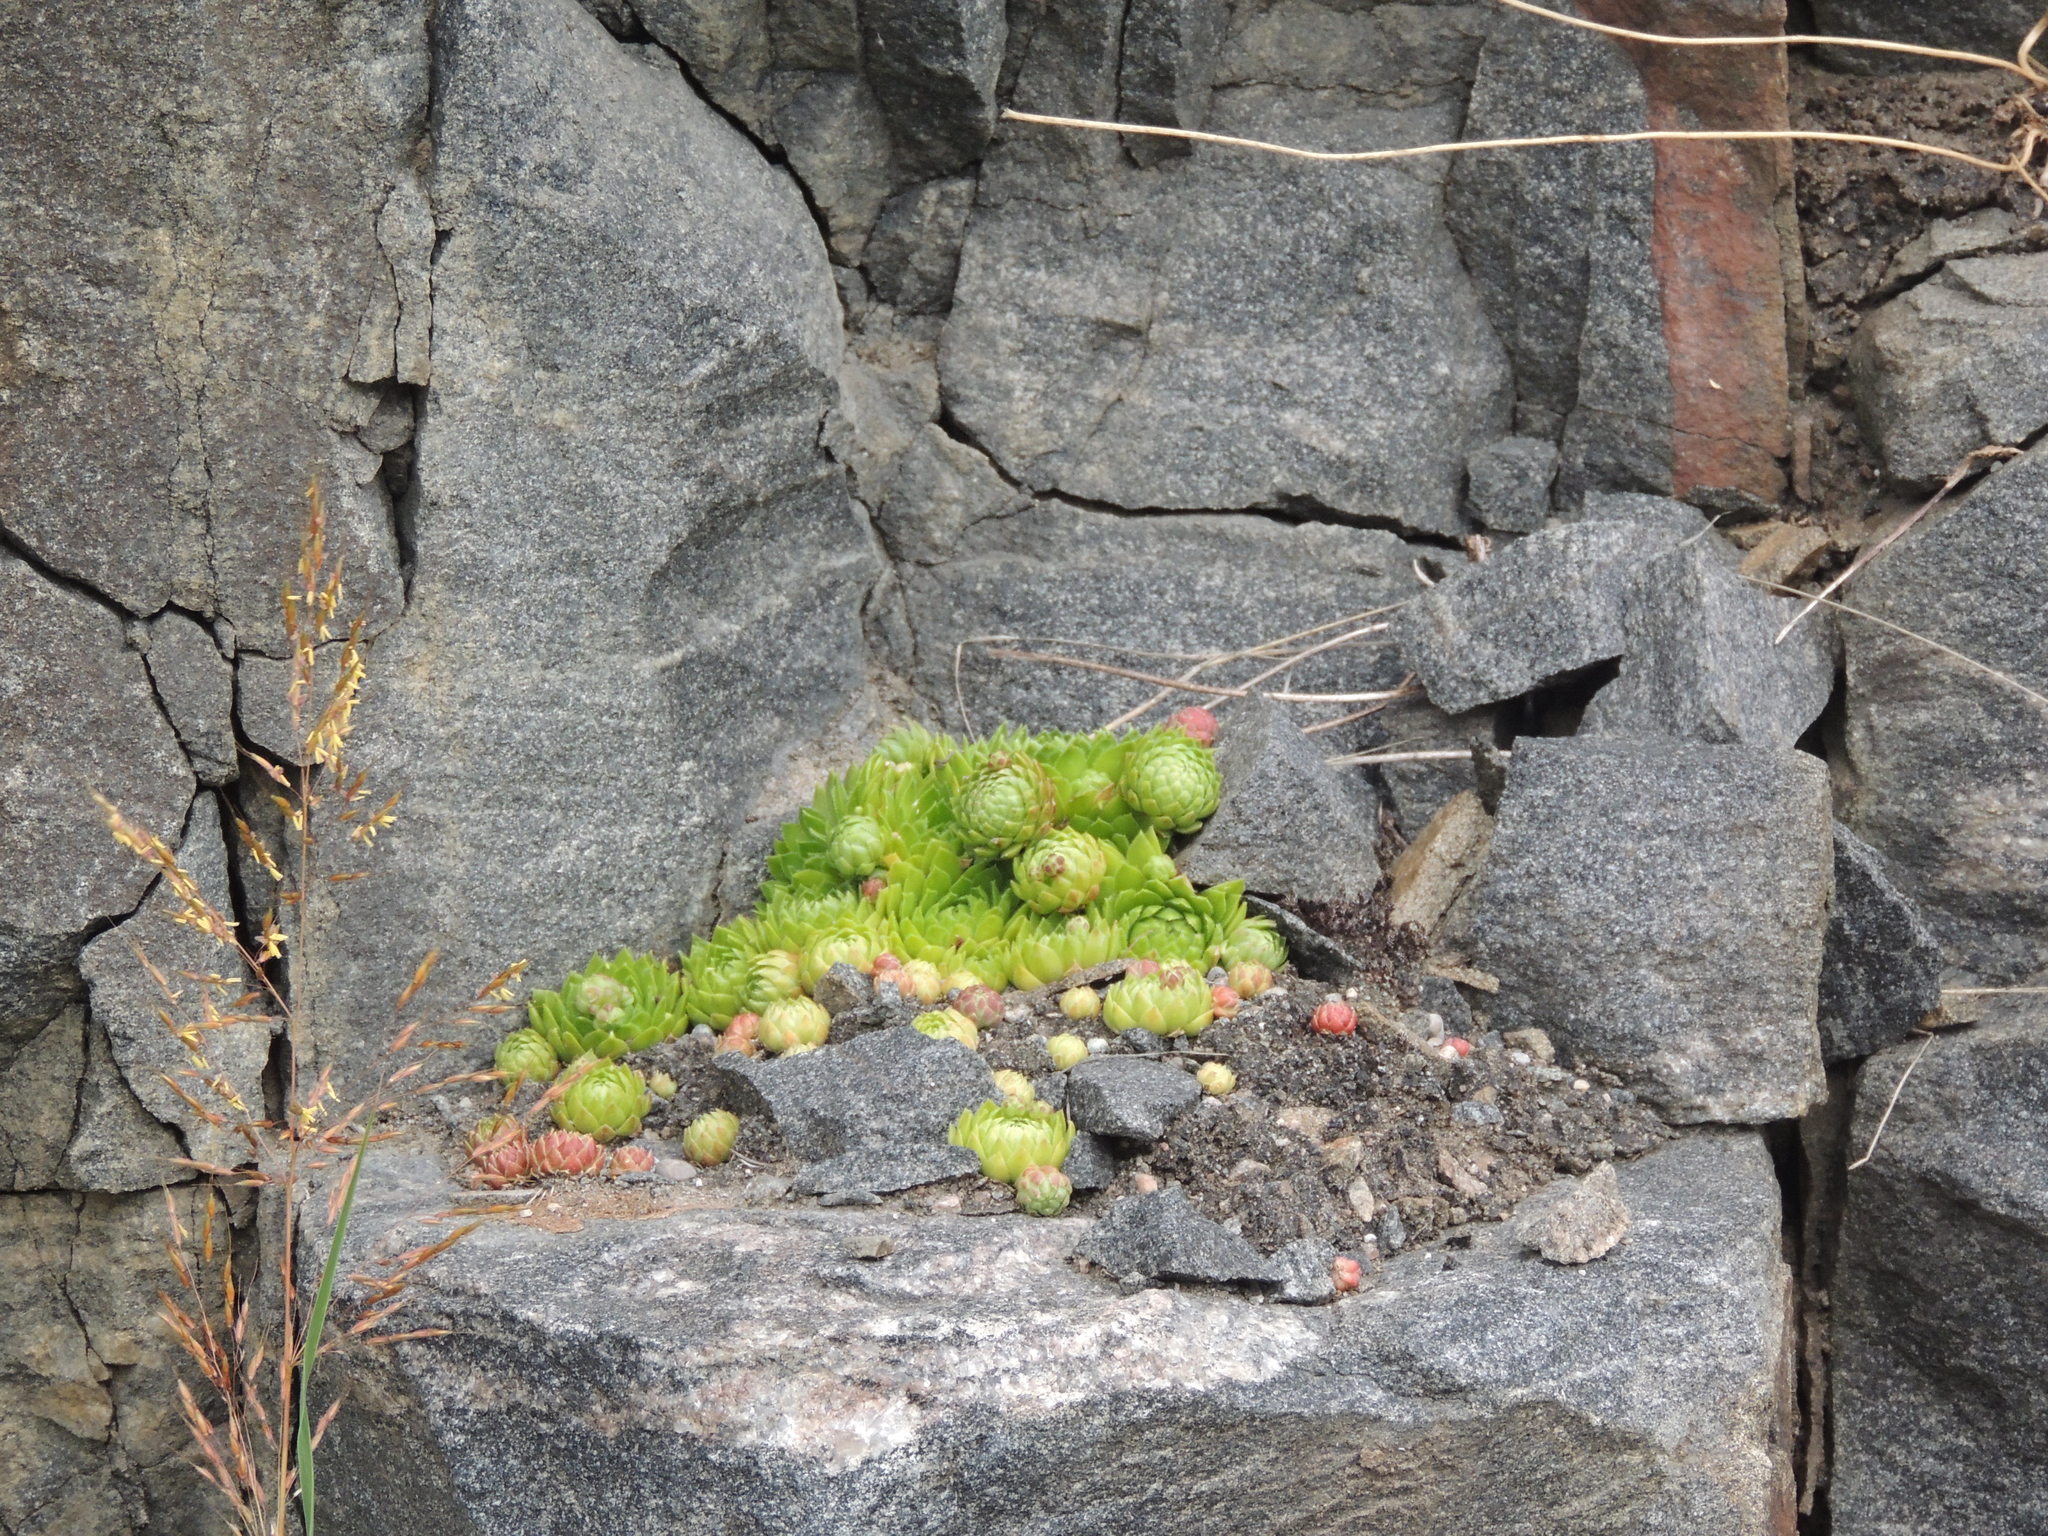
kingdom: Plantae
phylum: Tracheophyta
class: Magnoliopsida
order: Saxifragales
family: Crassulaceae
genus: Sempervivum
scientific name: Sempervivum globiferum
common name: Rolling hen-and-chicks
